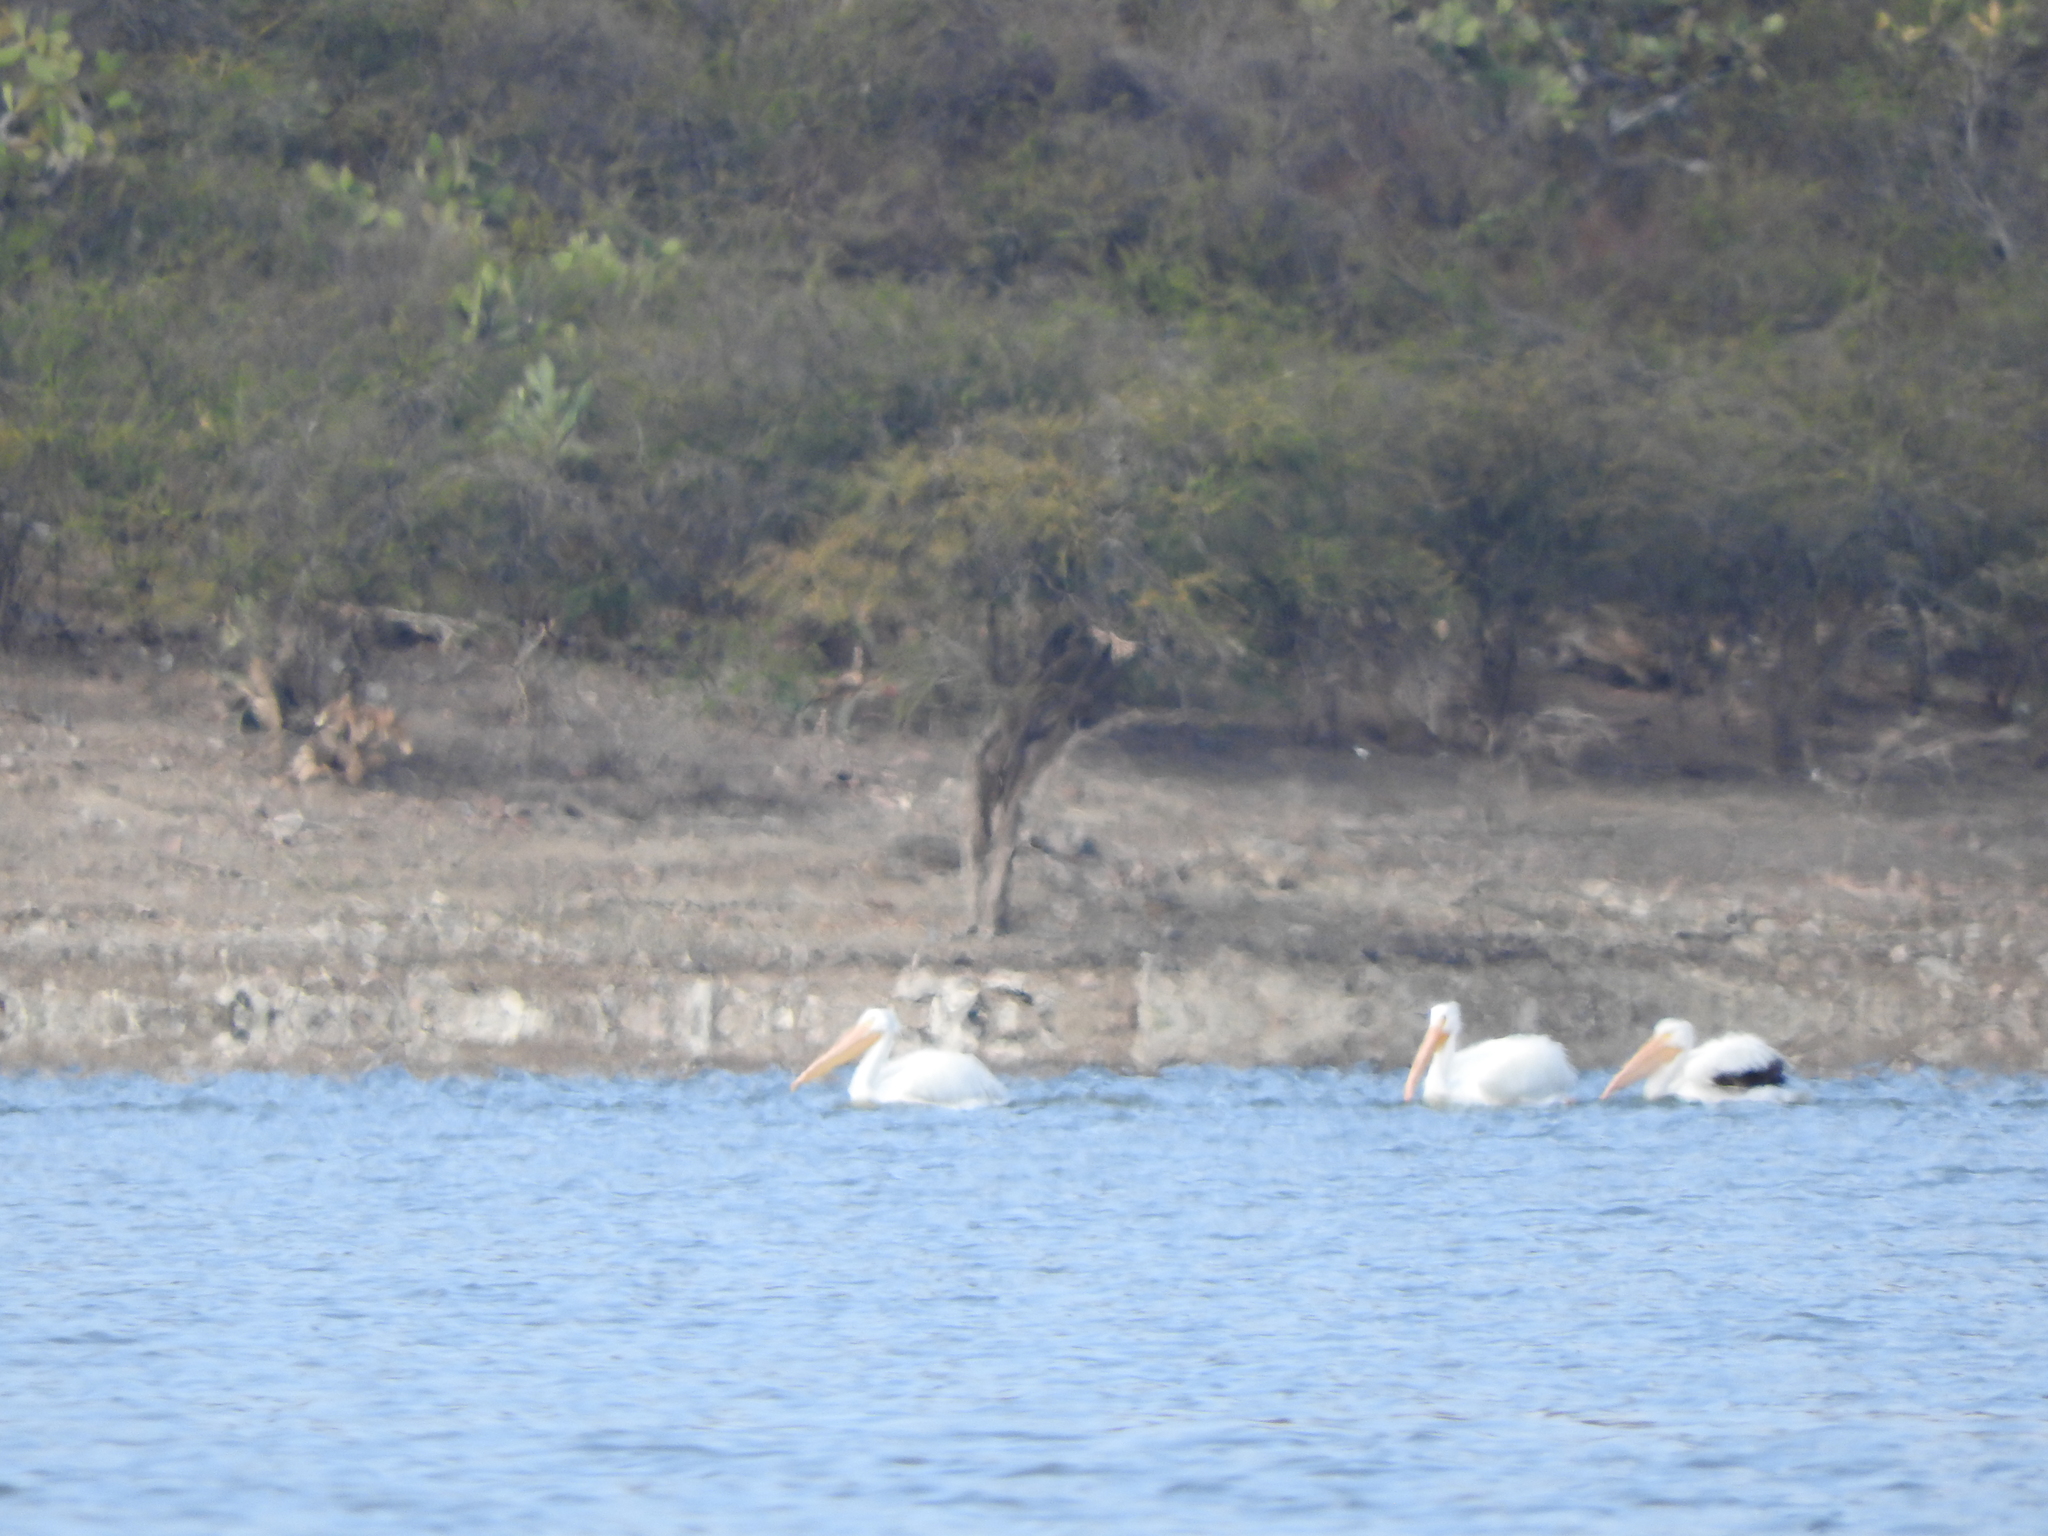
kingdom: Animalia
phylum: Chordata
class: Aves
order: Pelecaniformes
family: Pelecanidae
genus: Pelecanus
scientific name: Pelecanus erythrorhynchos
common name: American white pelican
